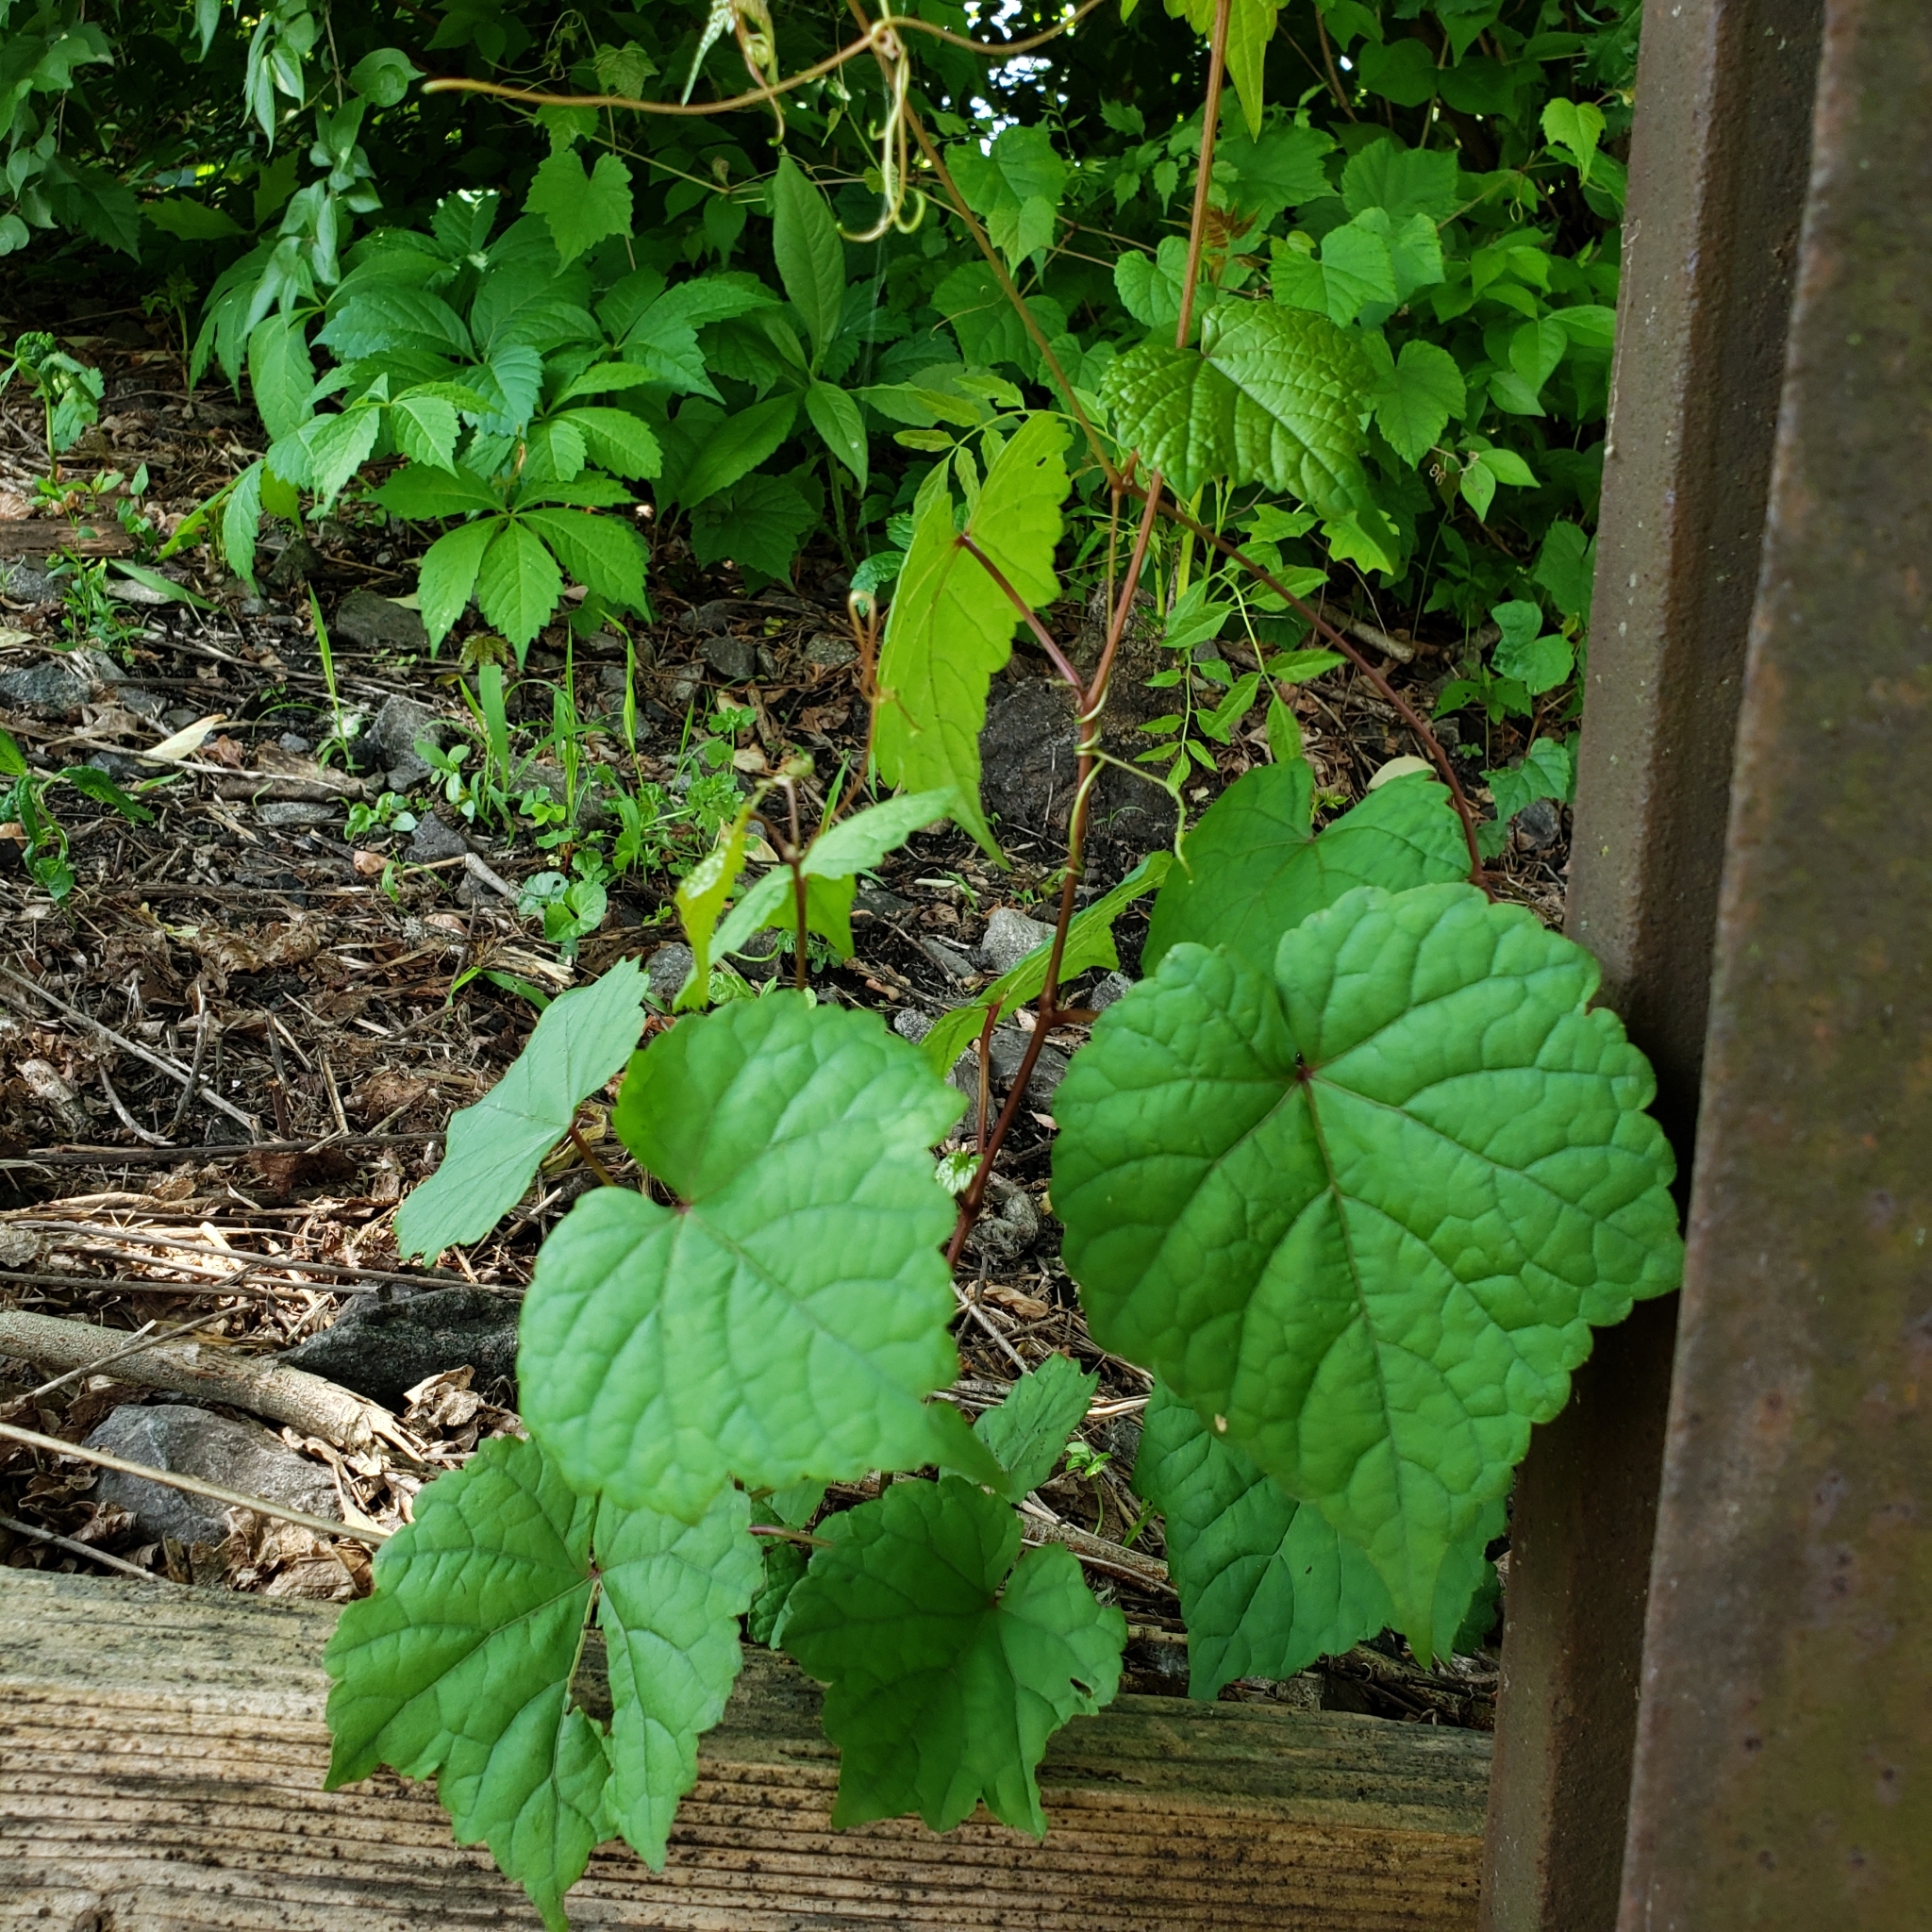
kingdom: Plantae
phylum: Tracheophyta
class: Magnoliopsida
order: Vitales
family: Vitaceae
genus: Ampelopsis
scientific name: Ampelopsis glandulosa
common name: Amur peppervine
